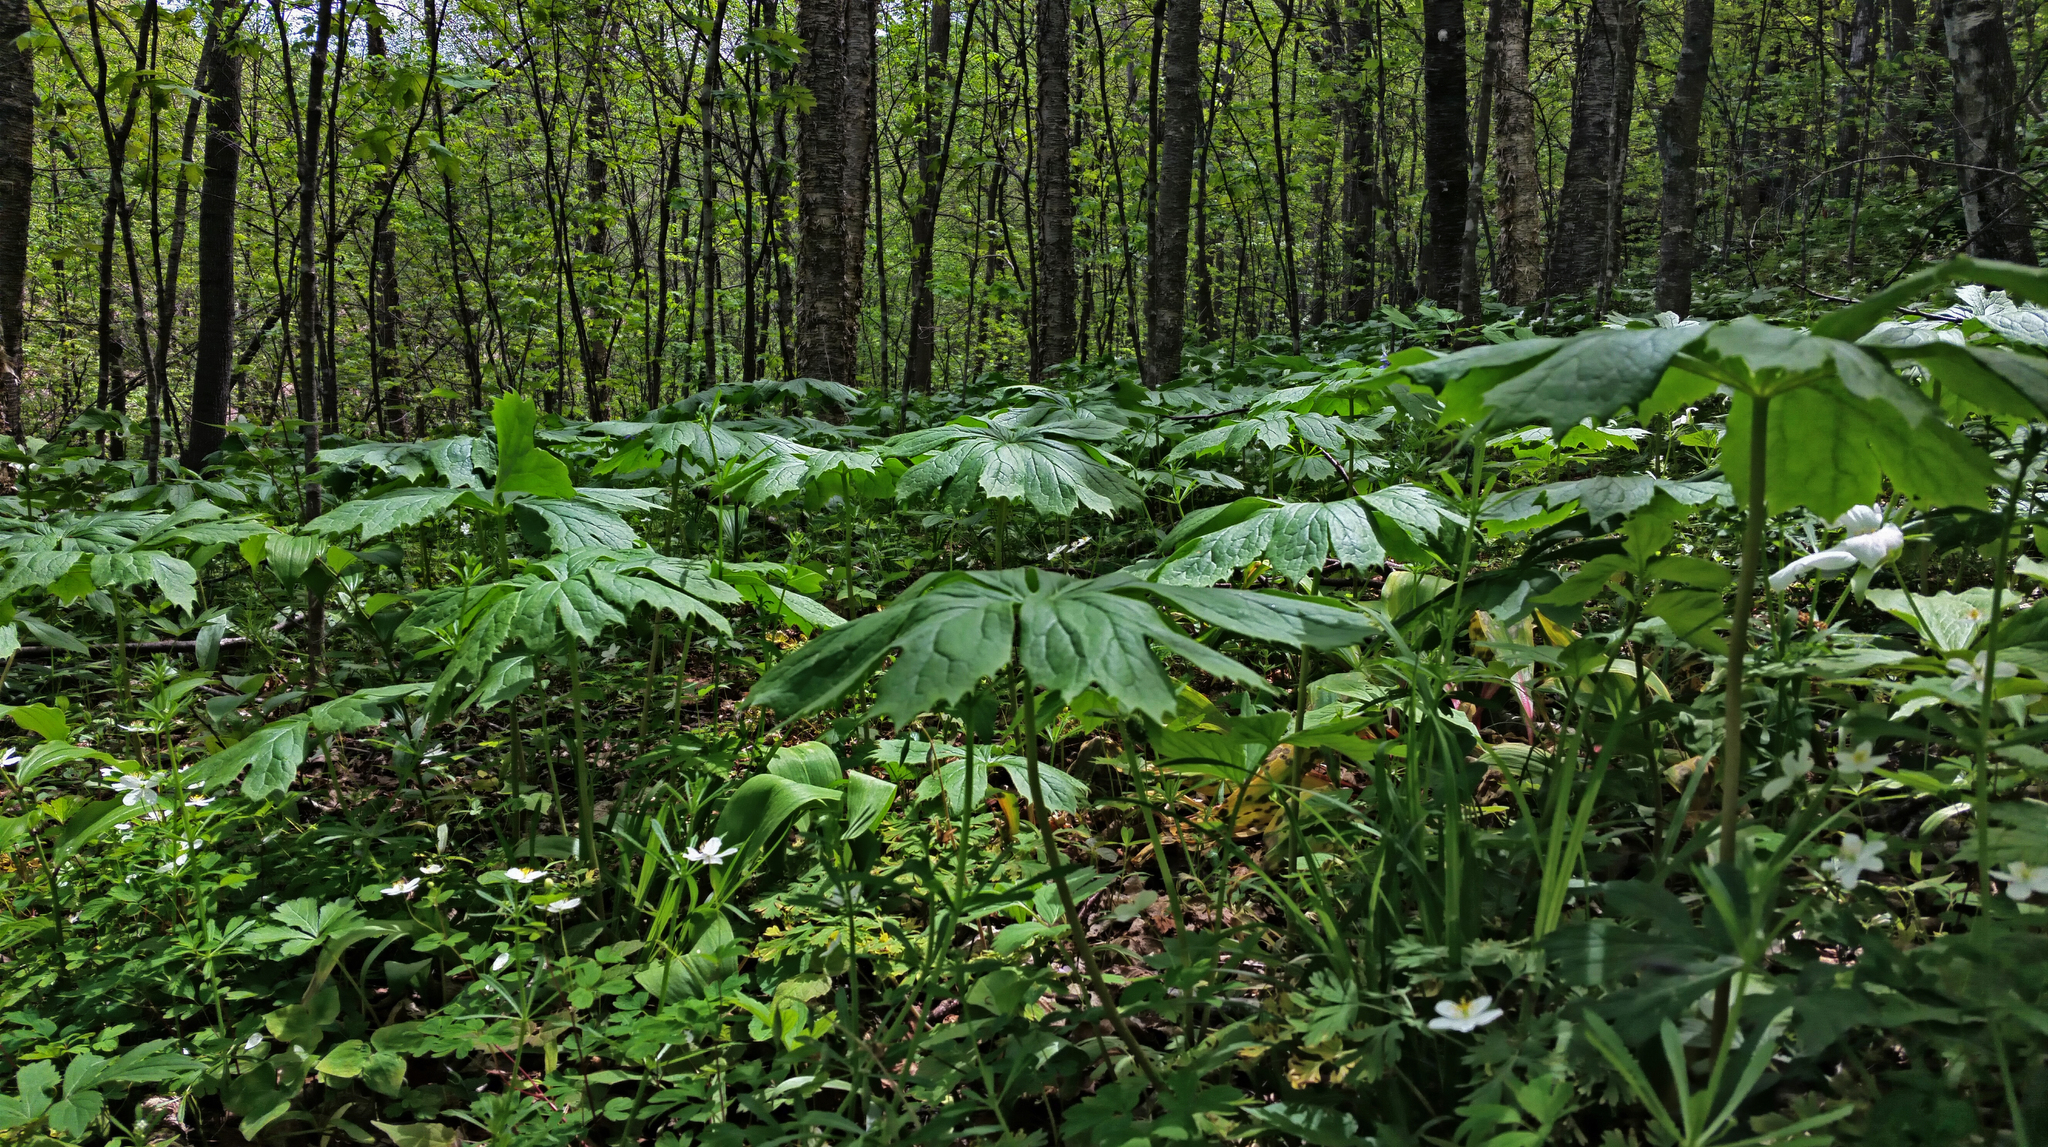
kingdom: Plantae
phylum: Tracheophyta
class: Magnoliopsida
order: Ranunculales
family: Berberidaceae
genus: Podophyllum
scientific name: Podophyllum peltatum
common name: Wild mandrake
